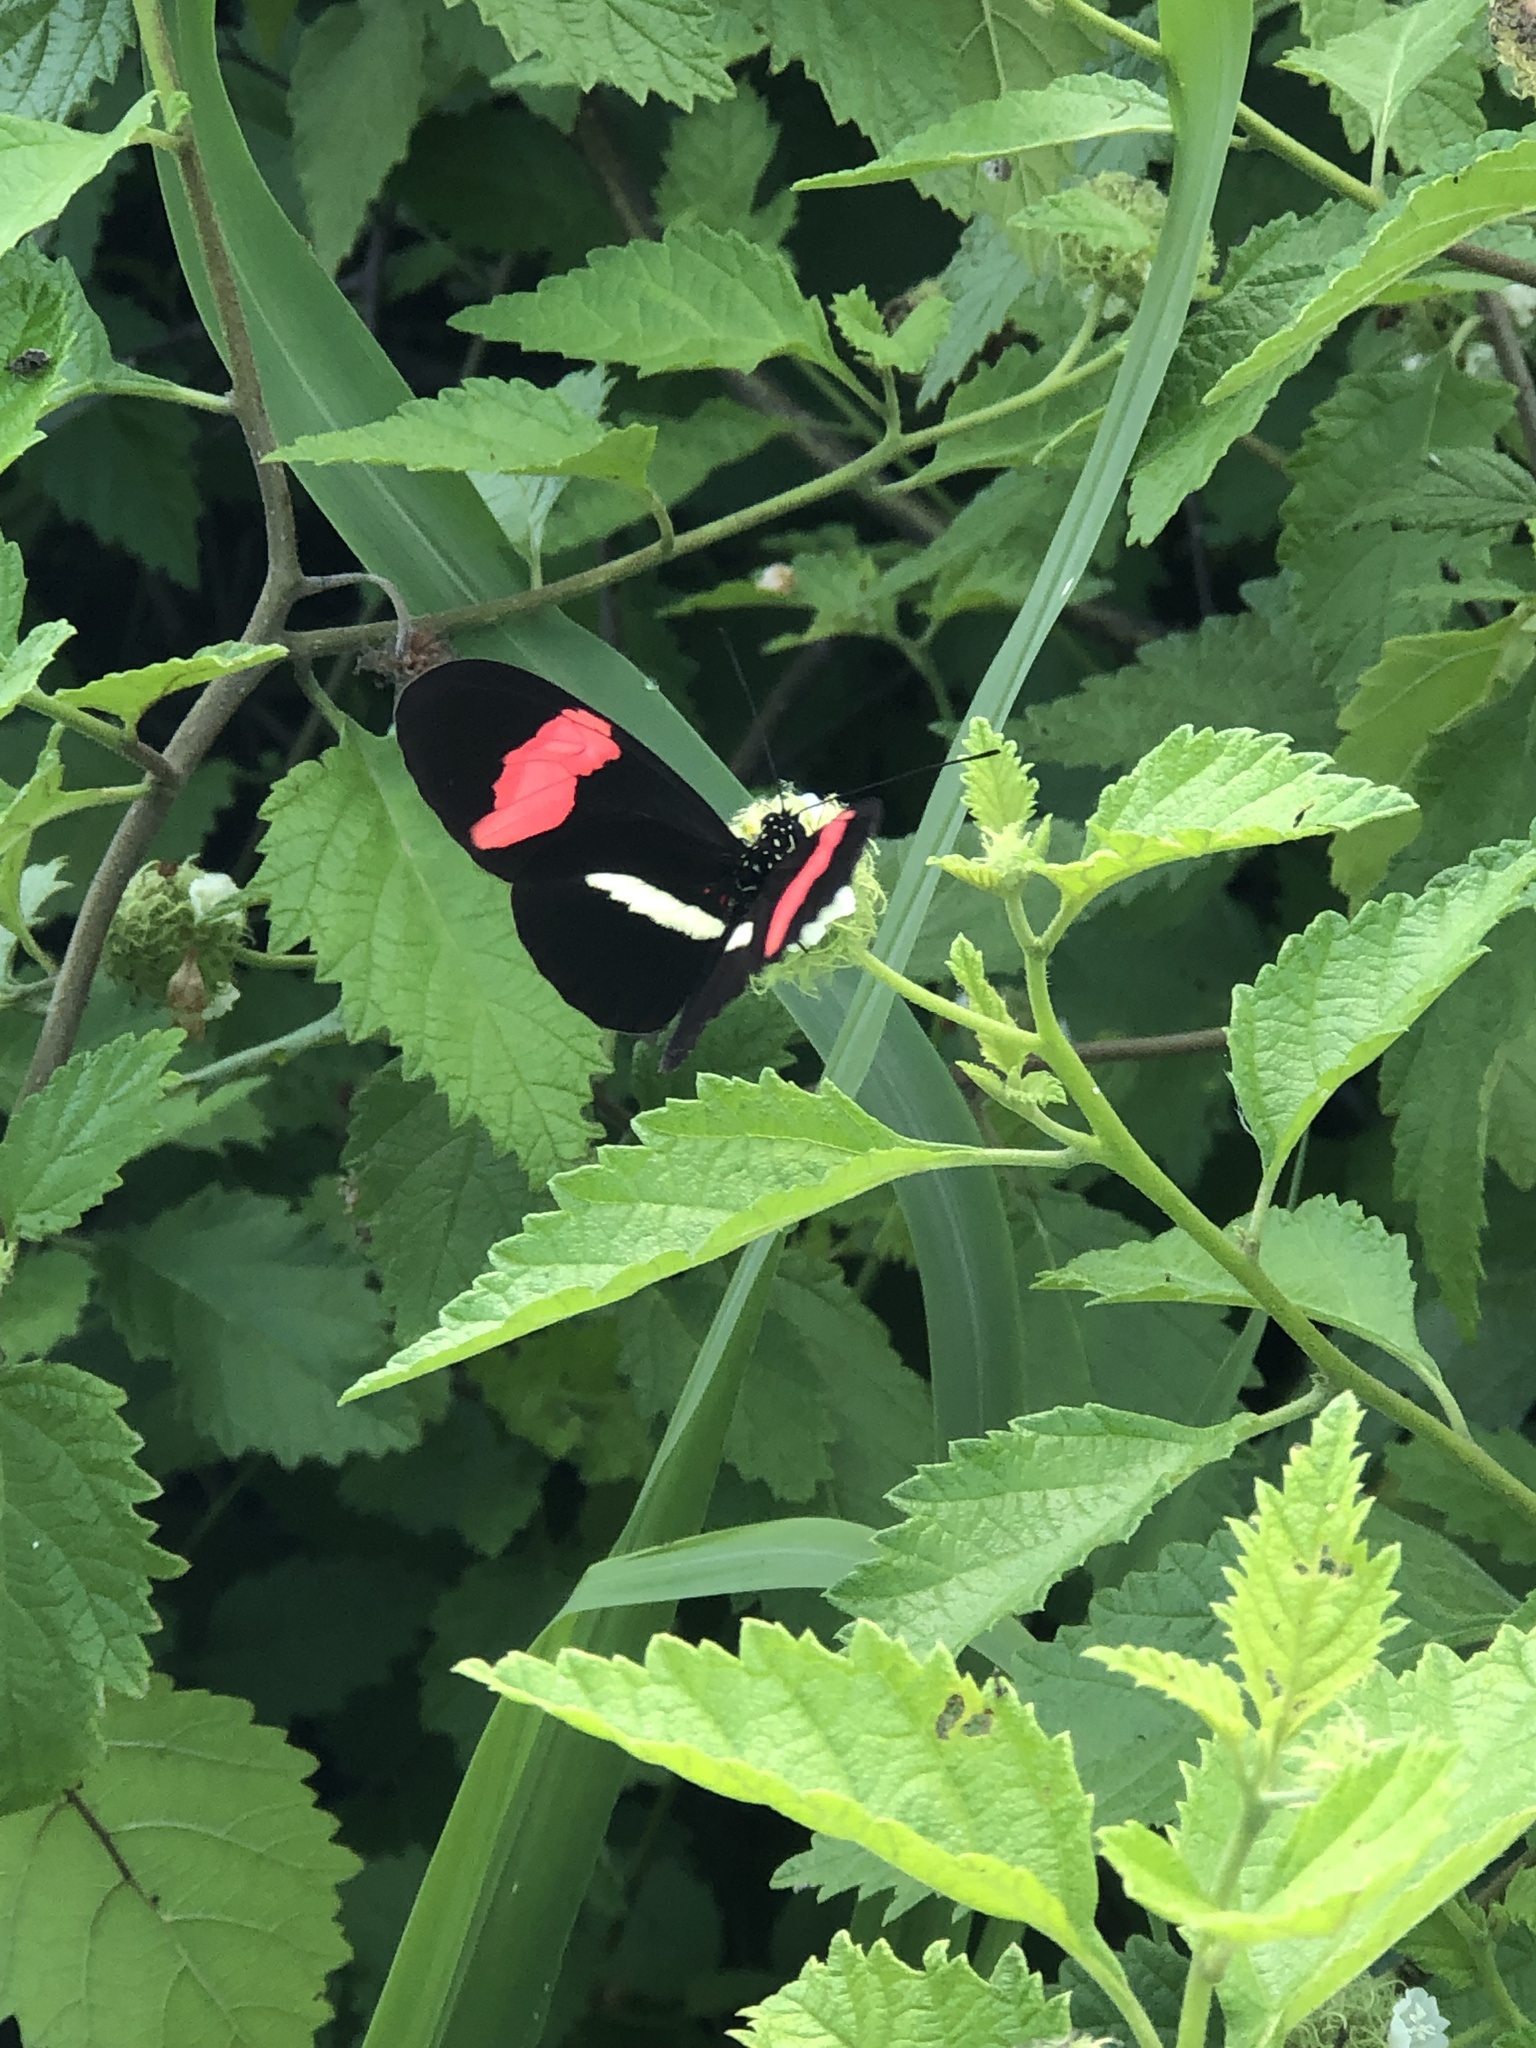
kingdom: Animalia
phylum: Arthropoda
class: Insecta
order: Lepidoptera
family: Nymphalidae
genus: Heliconius
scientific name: Heliconius erato
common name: Common patch longwing
